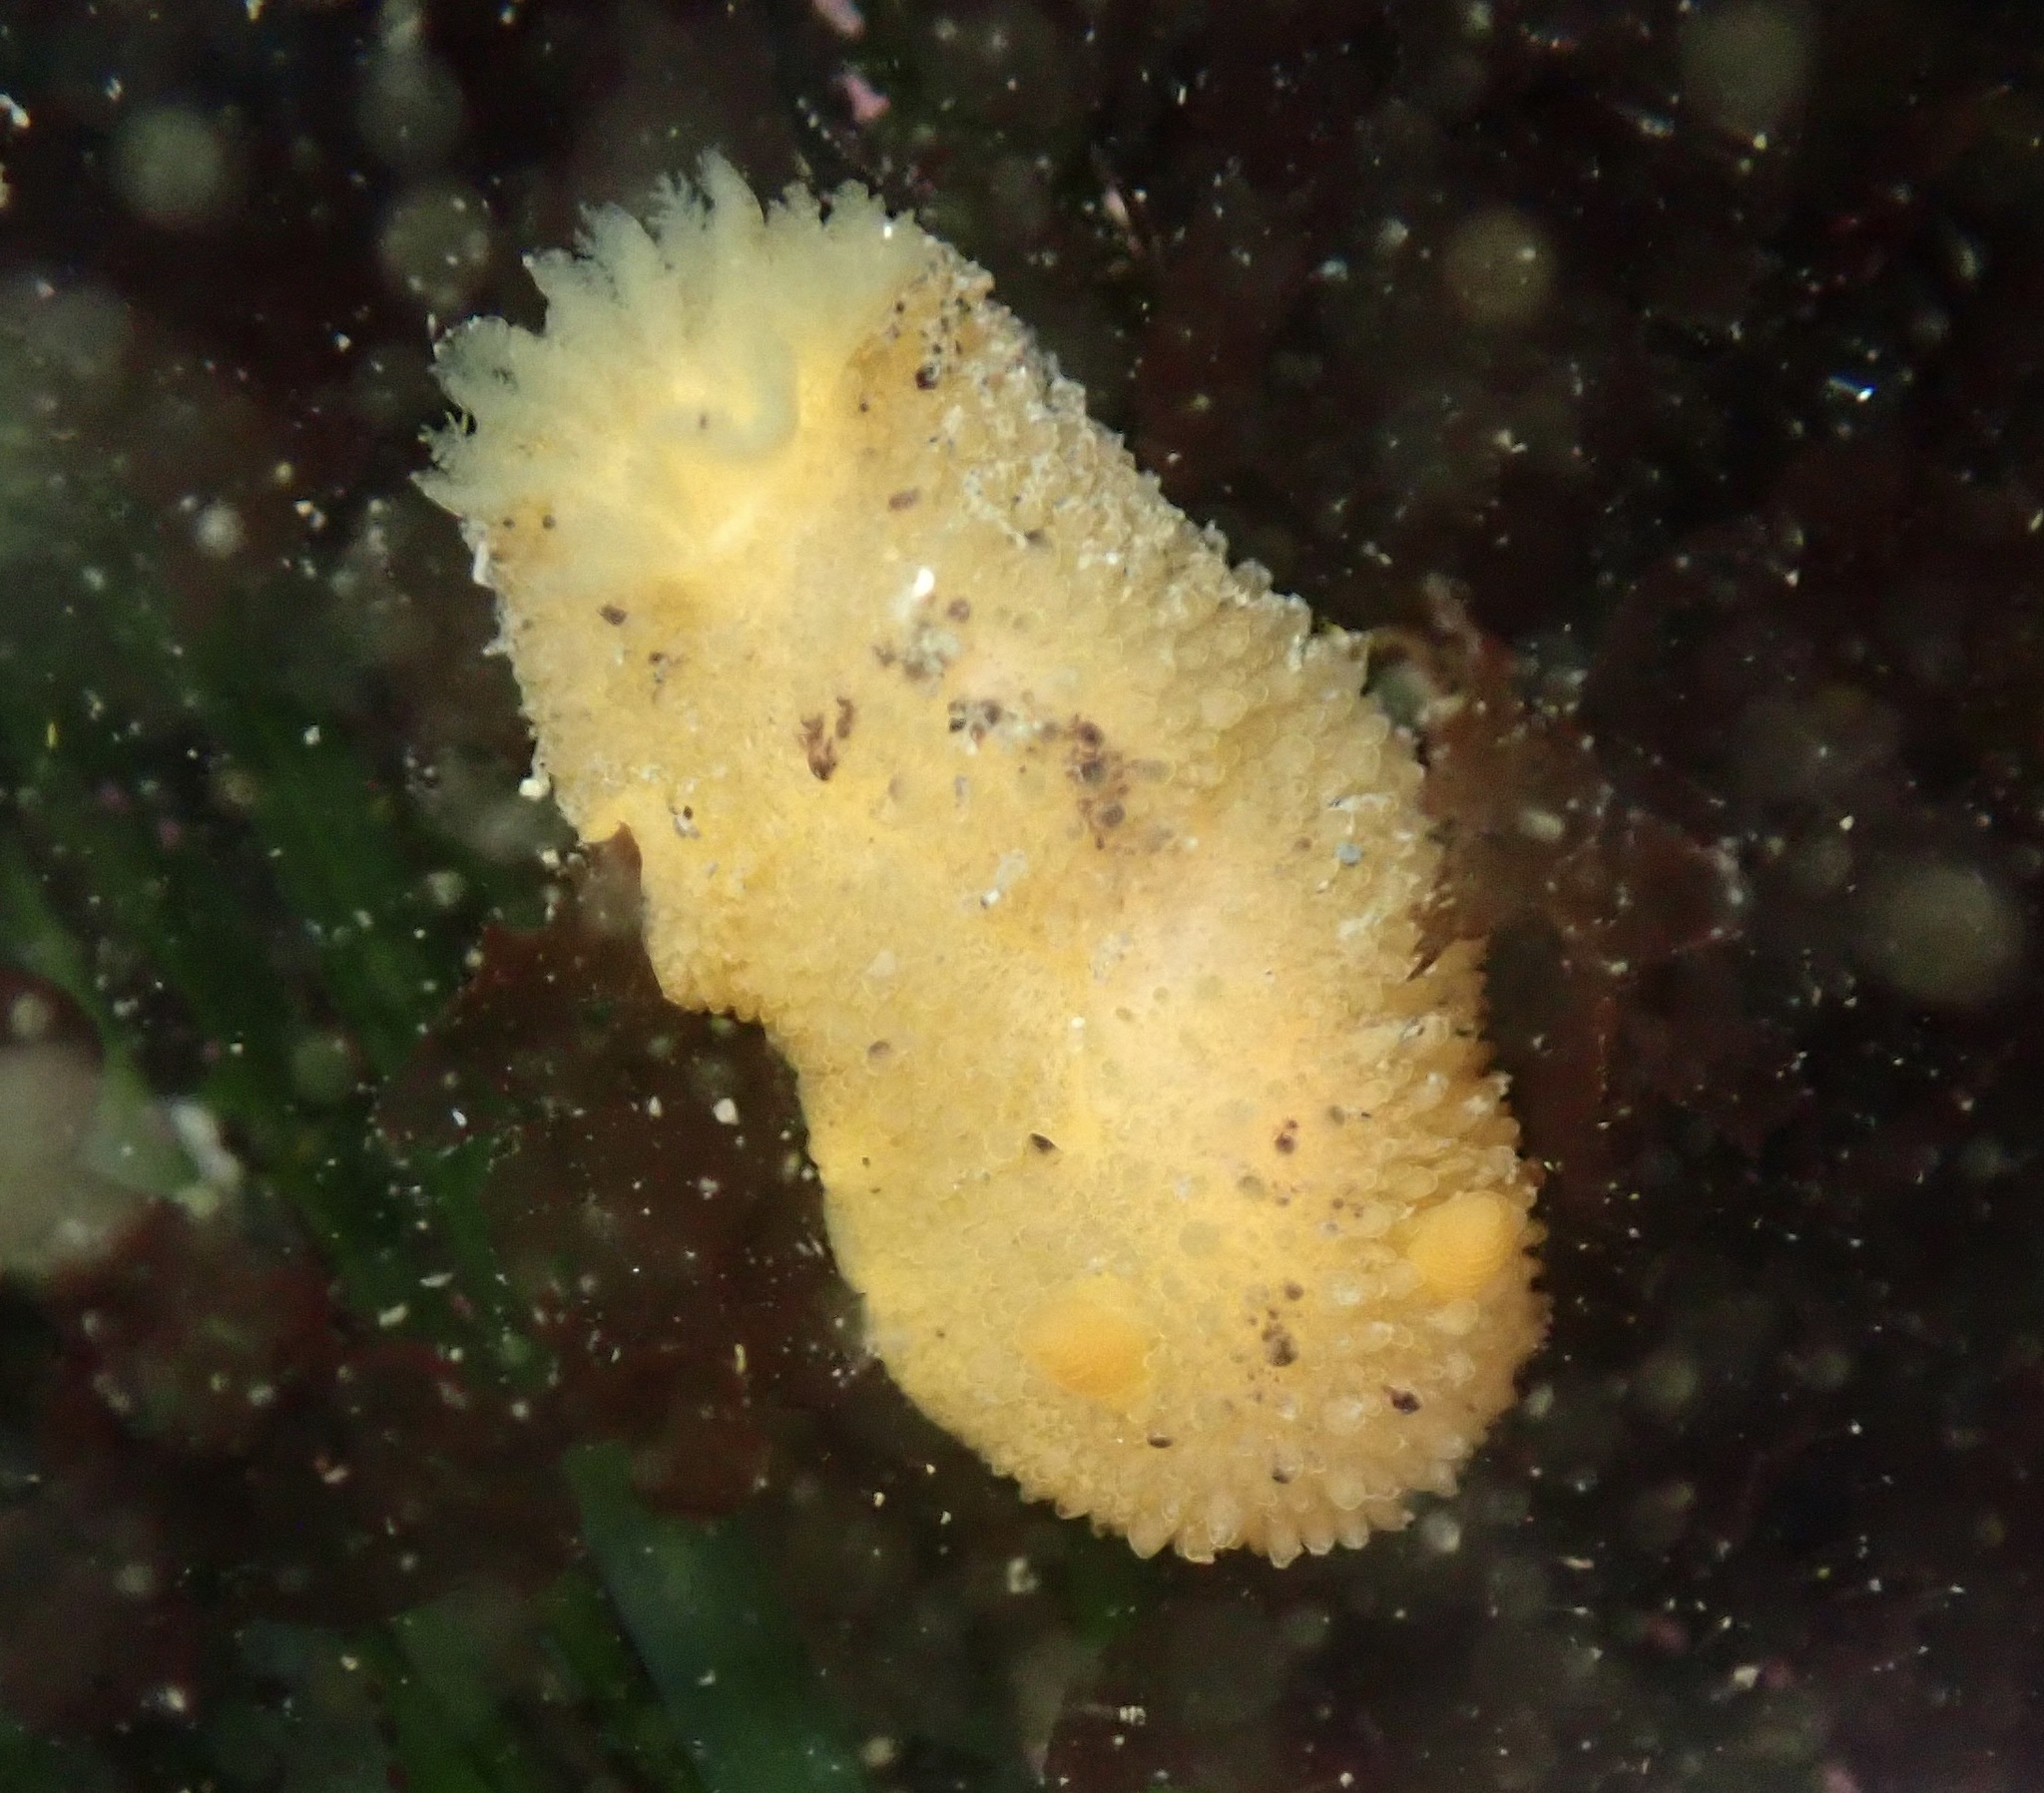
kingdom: Animalia
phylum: Mollusca
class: Gastropoda
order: Nudibranchia
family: Dorididae
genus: Doris
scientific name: Doris montereyensis
